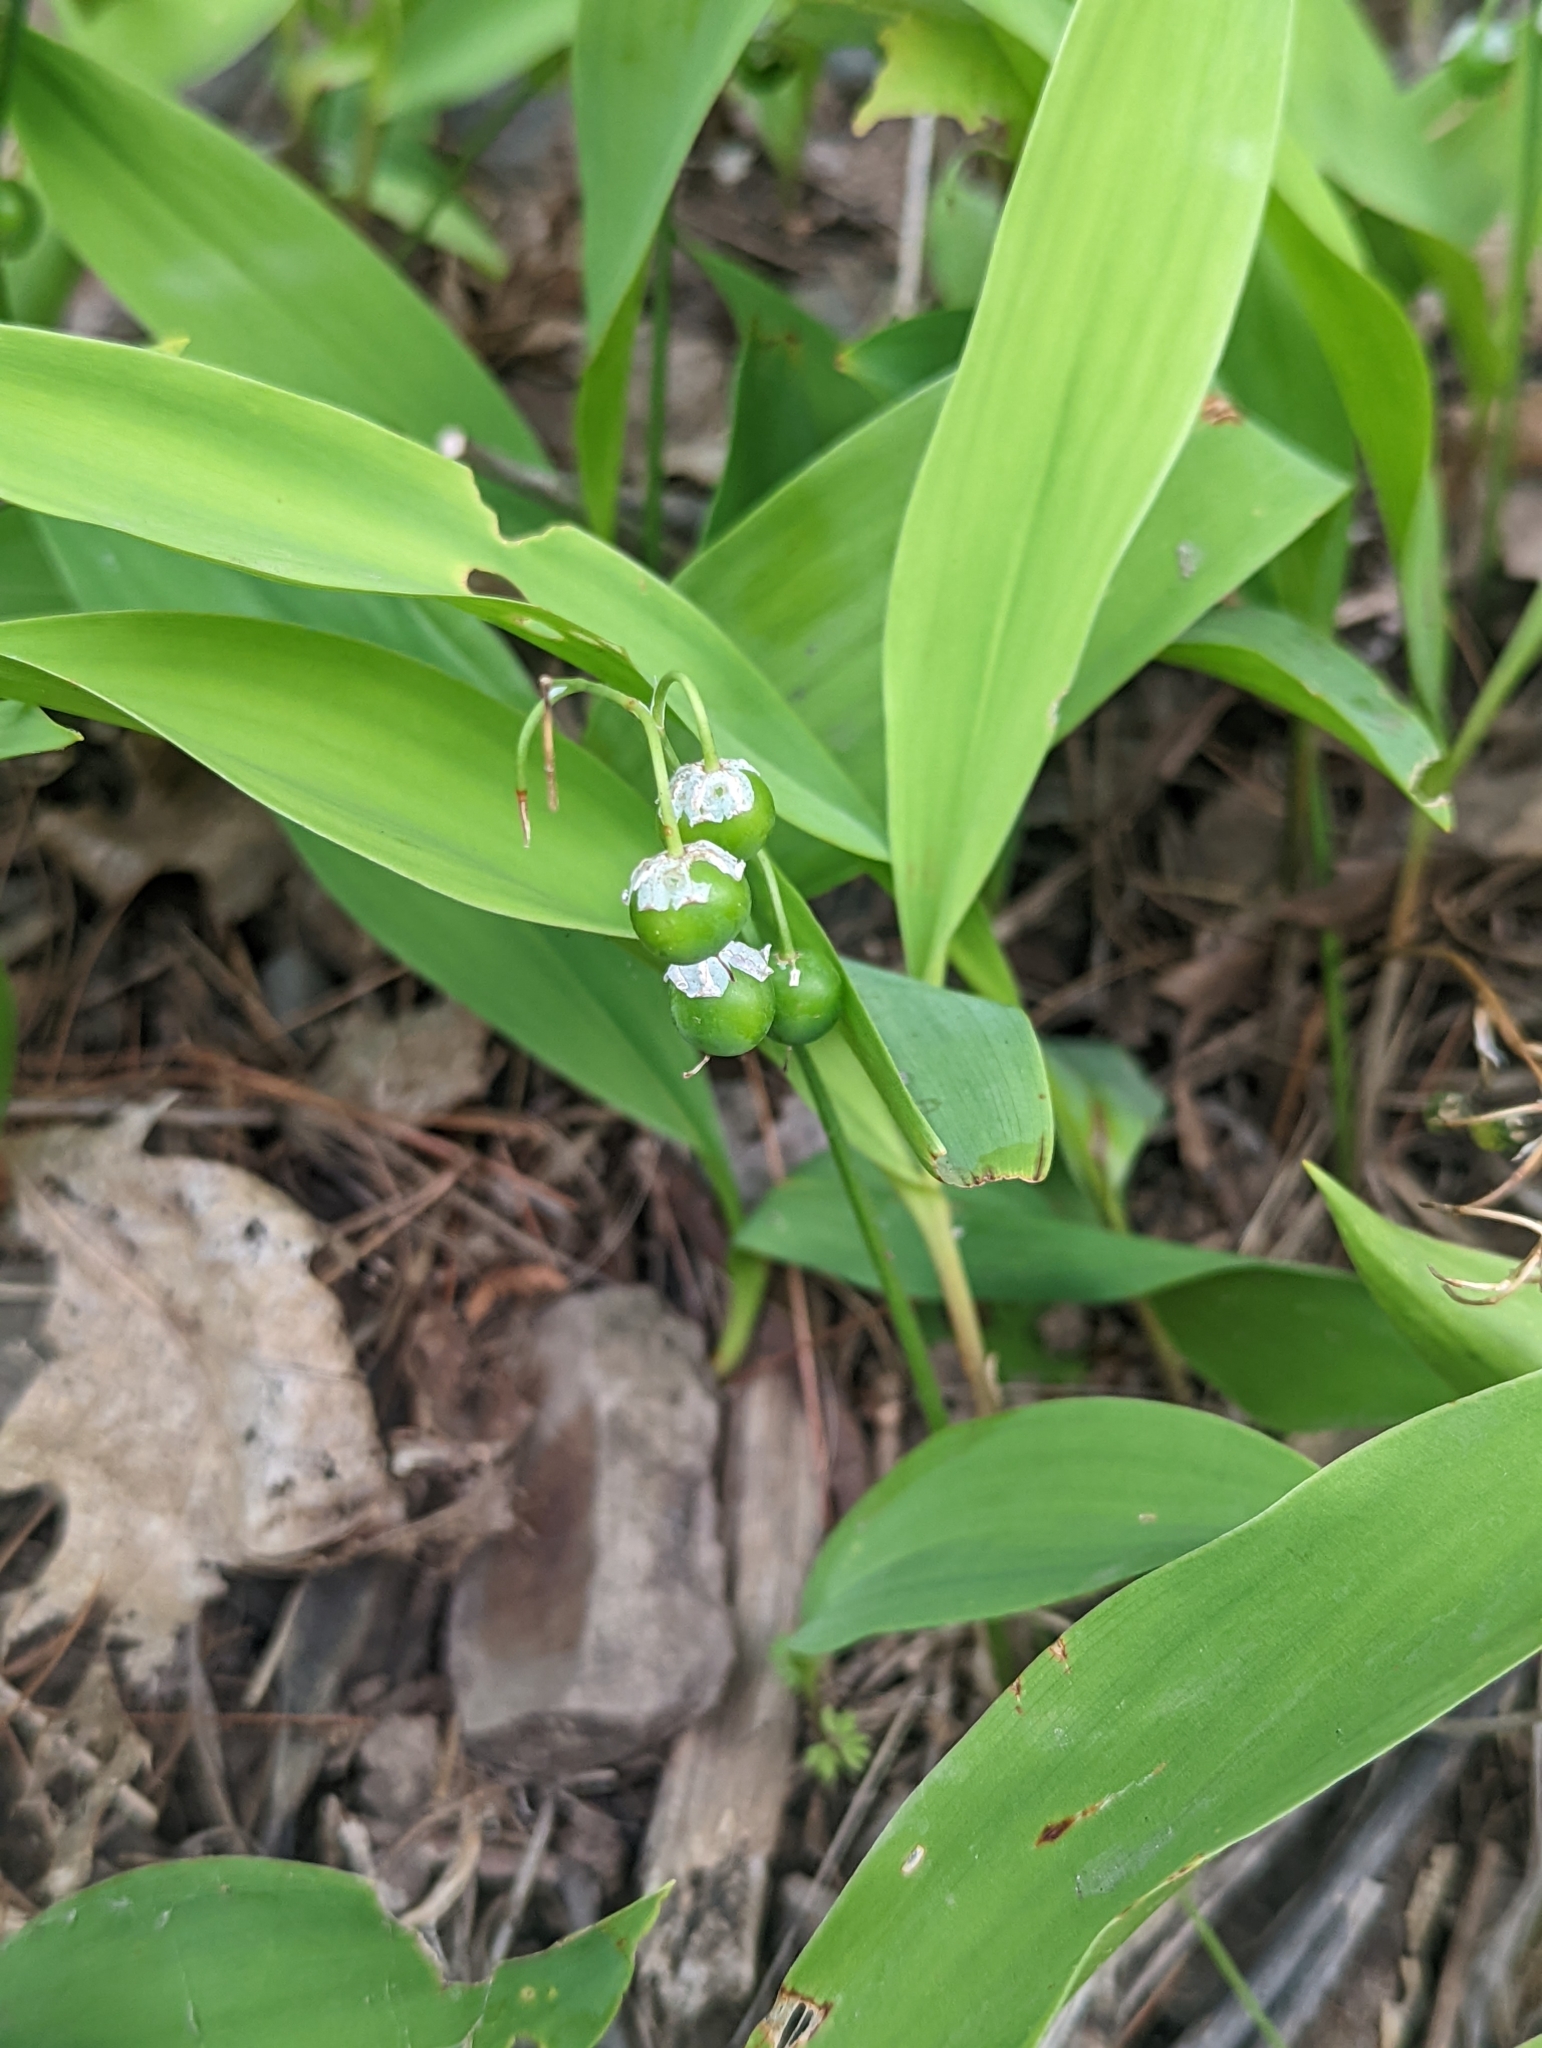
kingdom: Plantae
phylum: Tracheophyta
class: Liliopsida
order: Asparagales
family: Asparagaceae
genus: Convallaria
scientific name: Convallaria majalis
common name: Lily-of-the-valley
